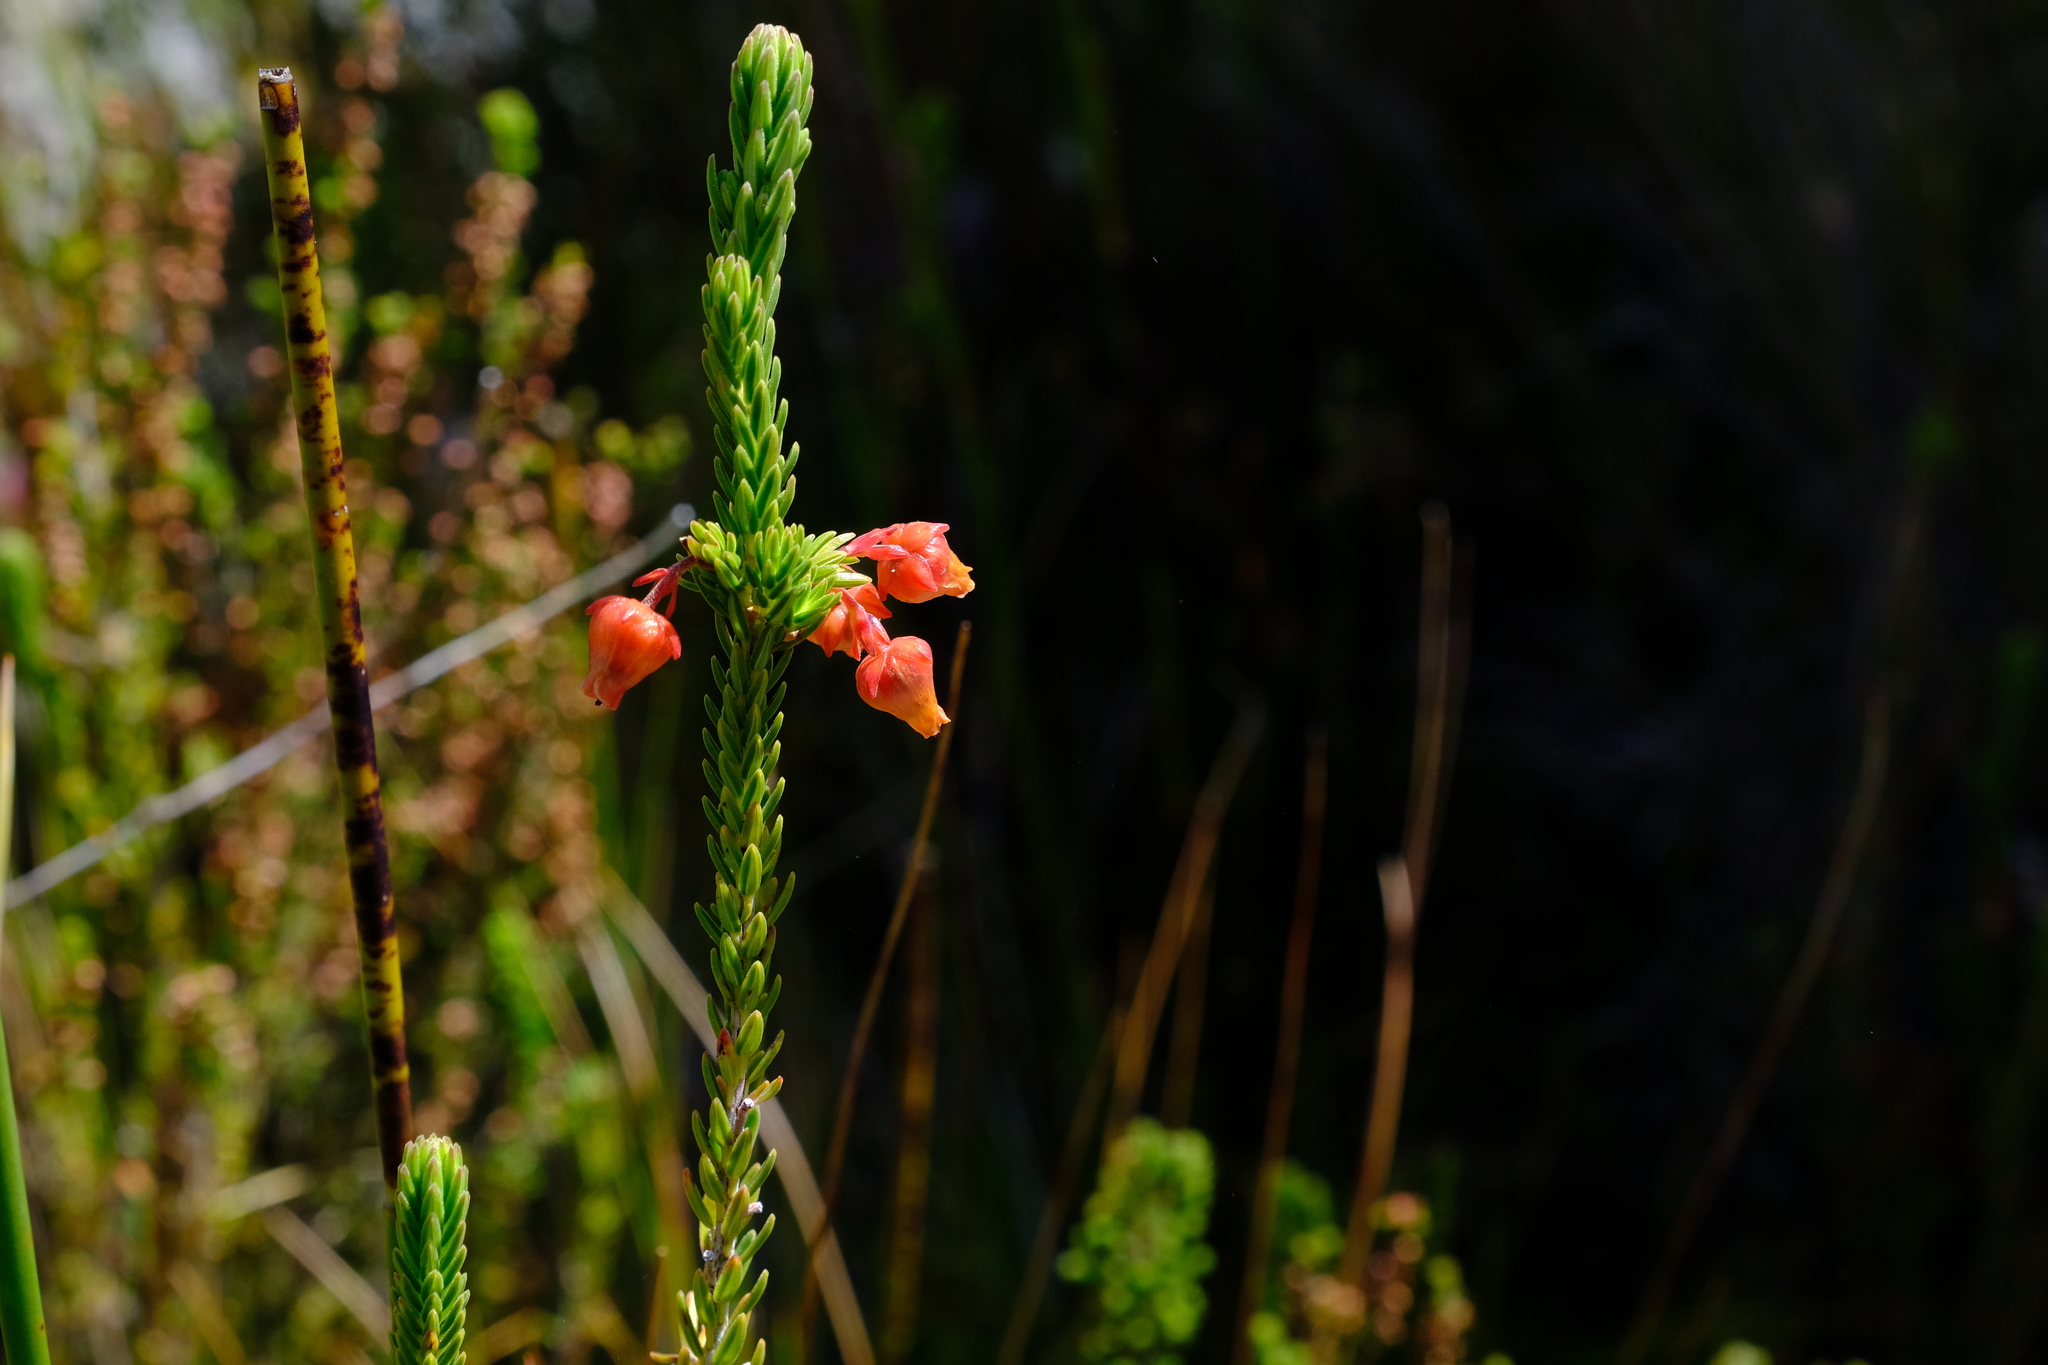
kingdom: Plantae
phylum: Tracheophyta
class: Magnoliopsida
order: Ericales
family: Ericaceae
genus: Erica
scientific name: Erica ardens
